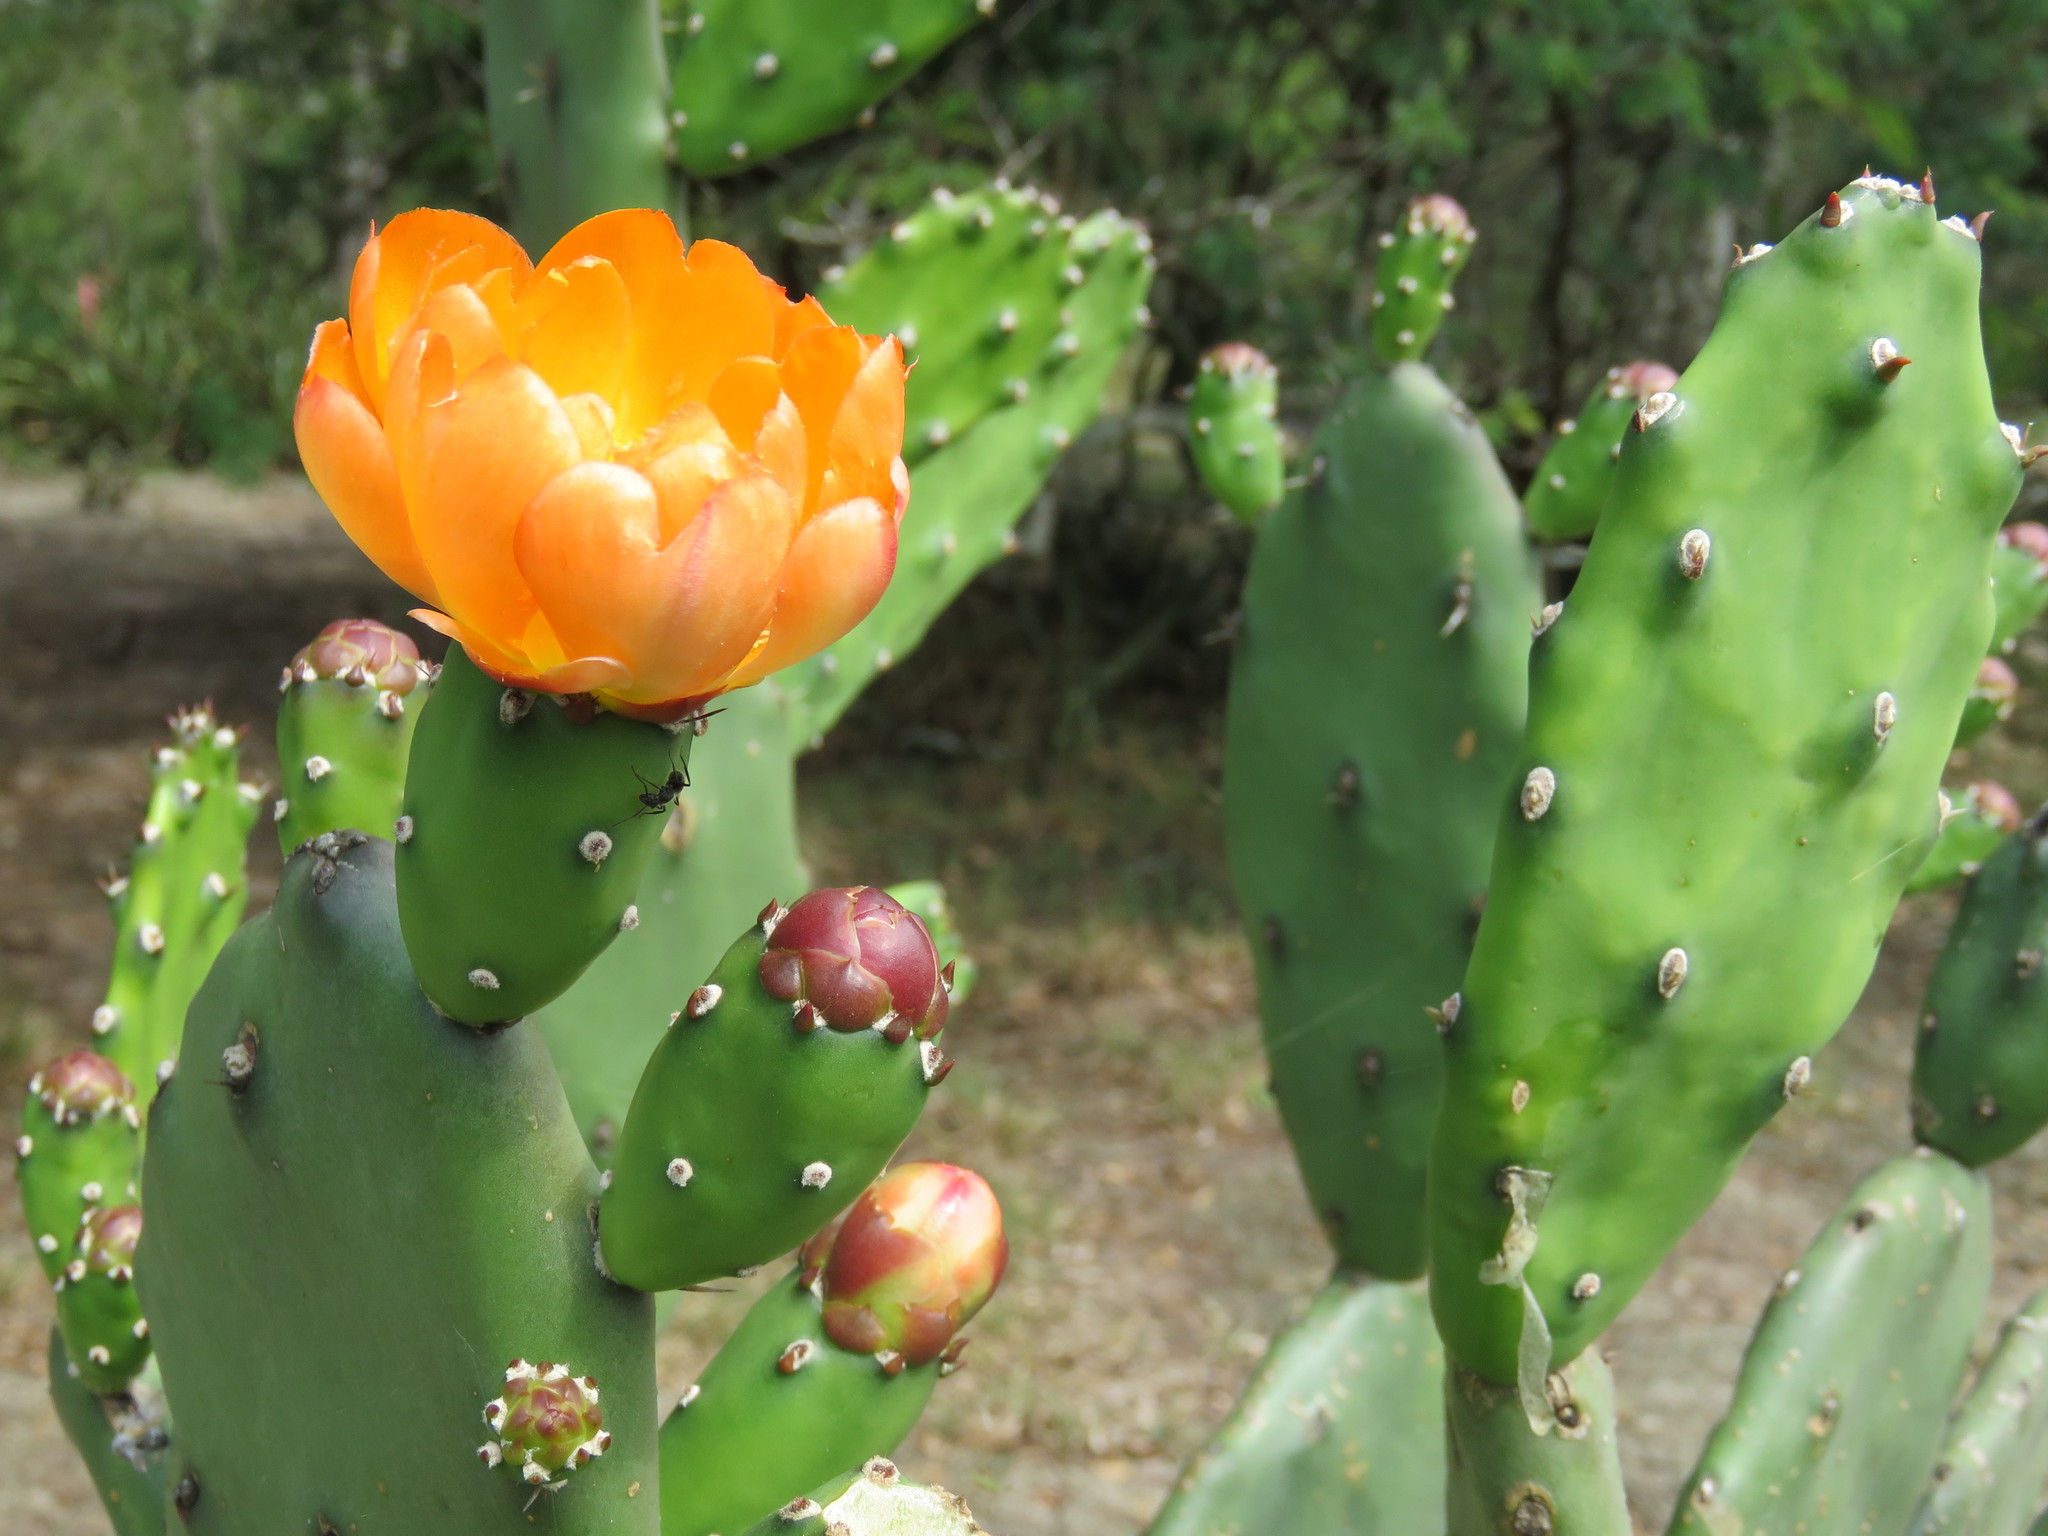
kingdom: Plantae
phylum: Tracheophyta
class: Magnoliopsida
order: Caryophyllales
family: Cactaceae
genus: Opuntia
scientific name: Opuntia quimilo
